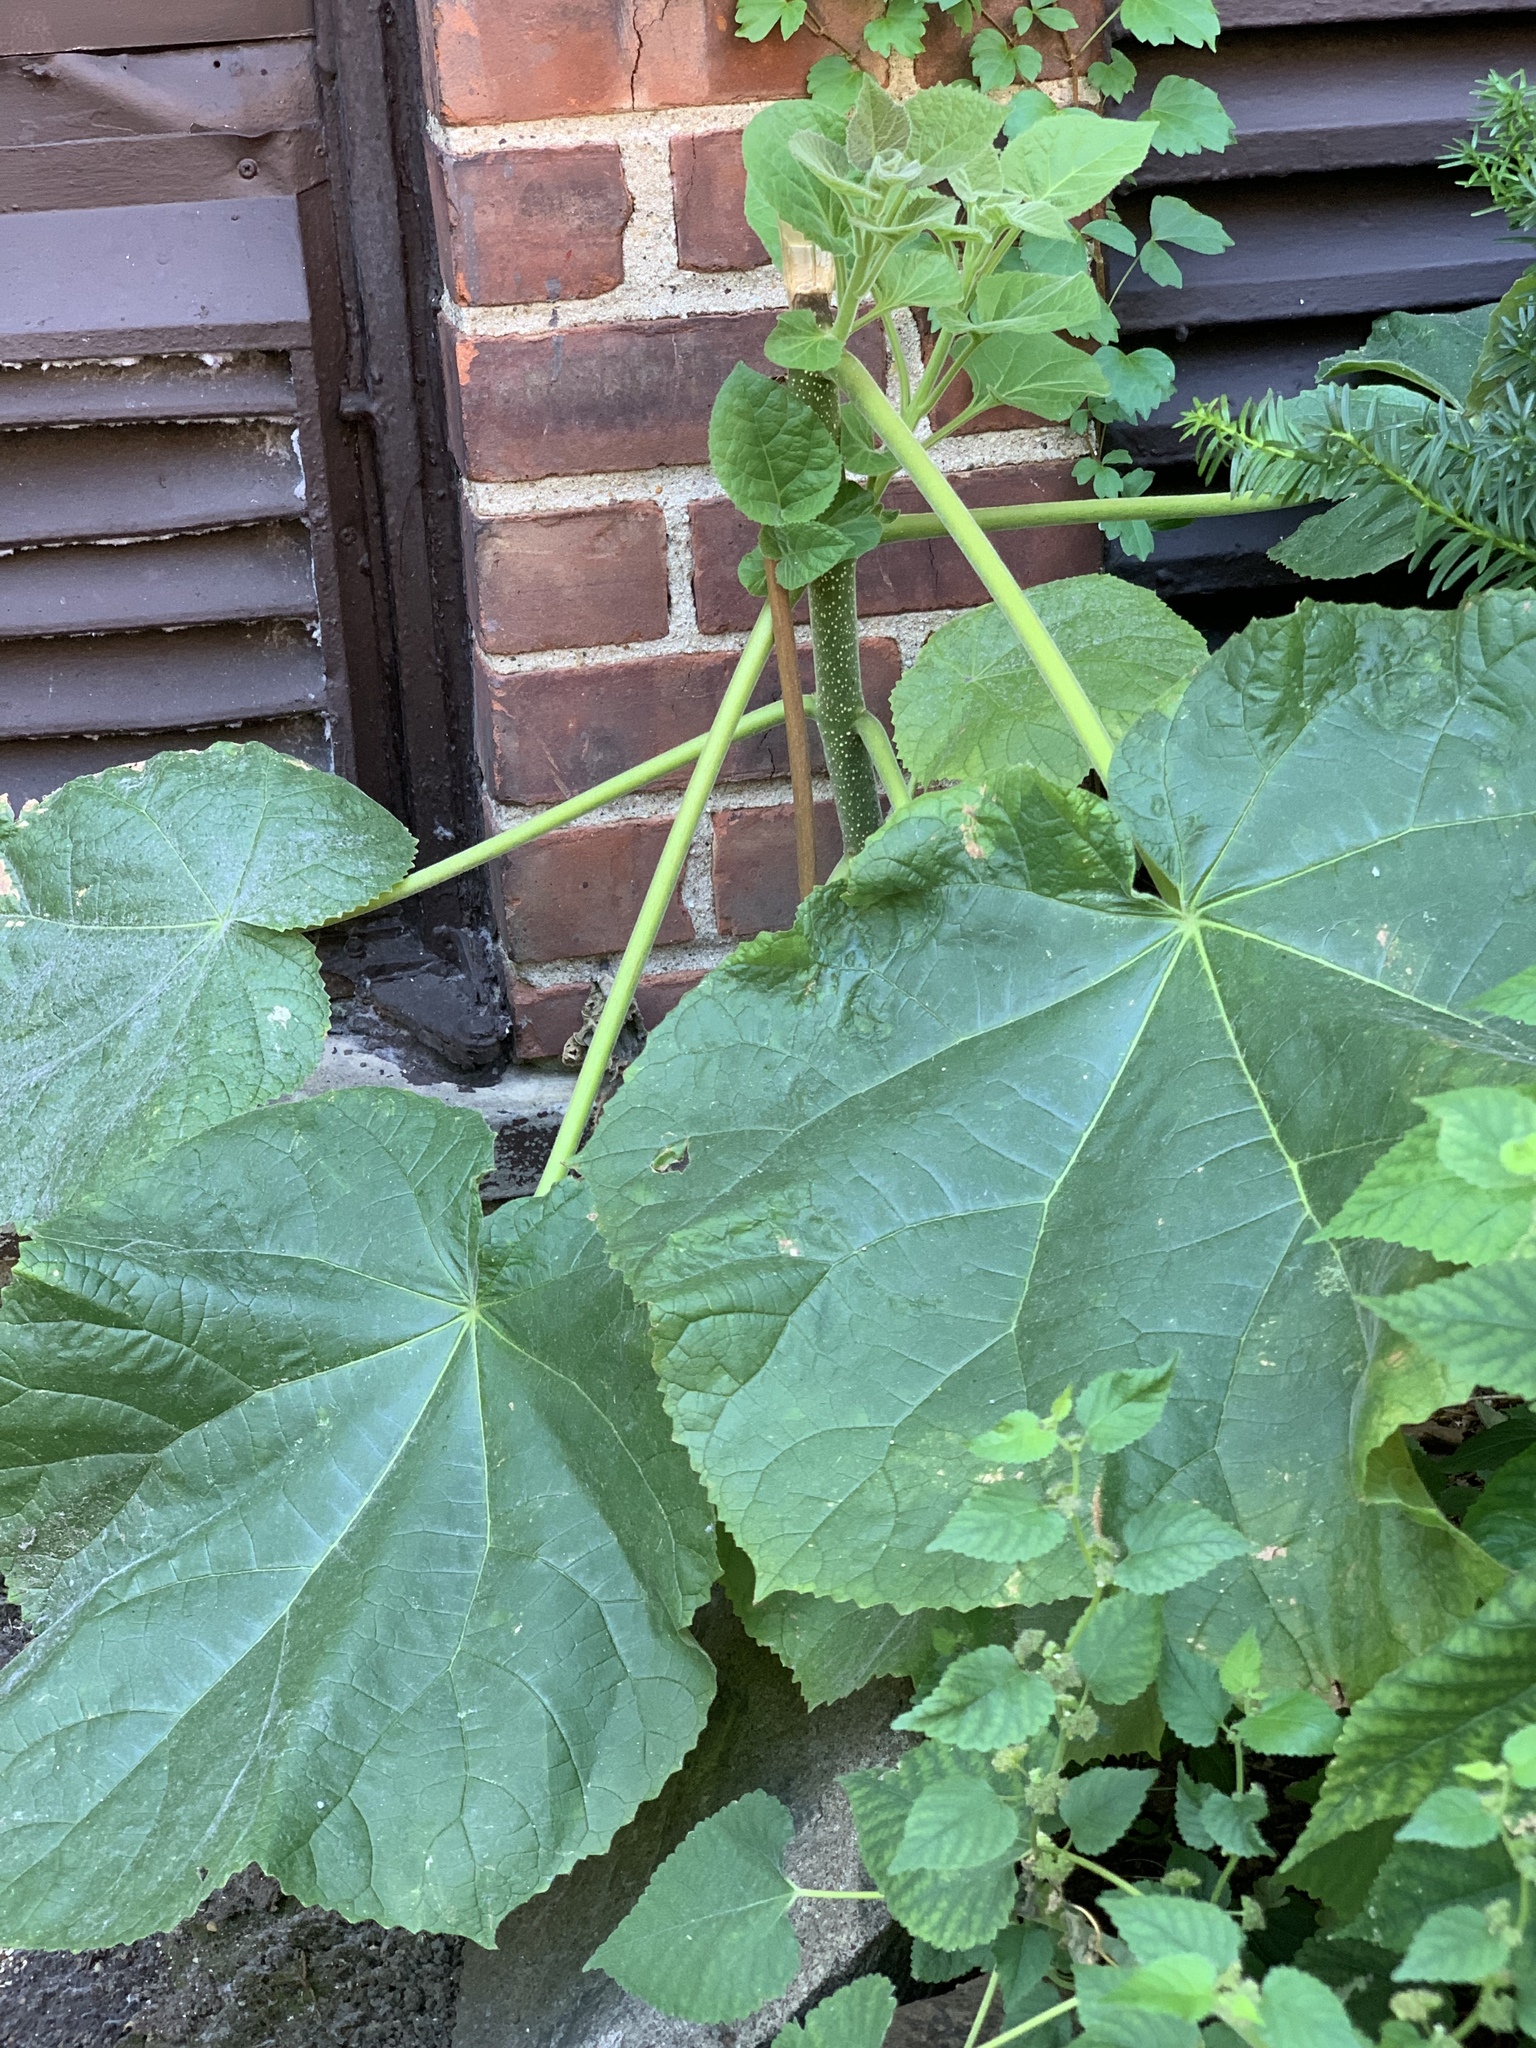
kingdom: Plantae
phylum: Tracheophyta
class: Magnoliopsida
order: Lamiales
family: Paulowniaceae
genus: Paulownia
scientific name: Paulownia tomentosa
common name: Foxglove-tree
